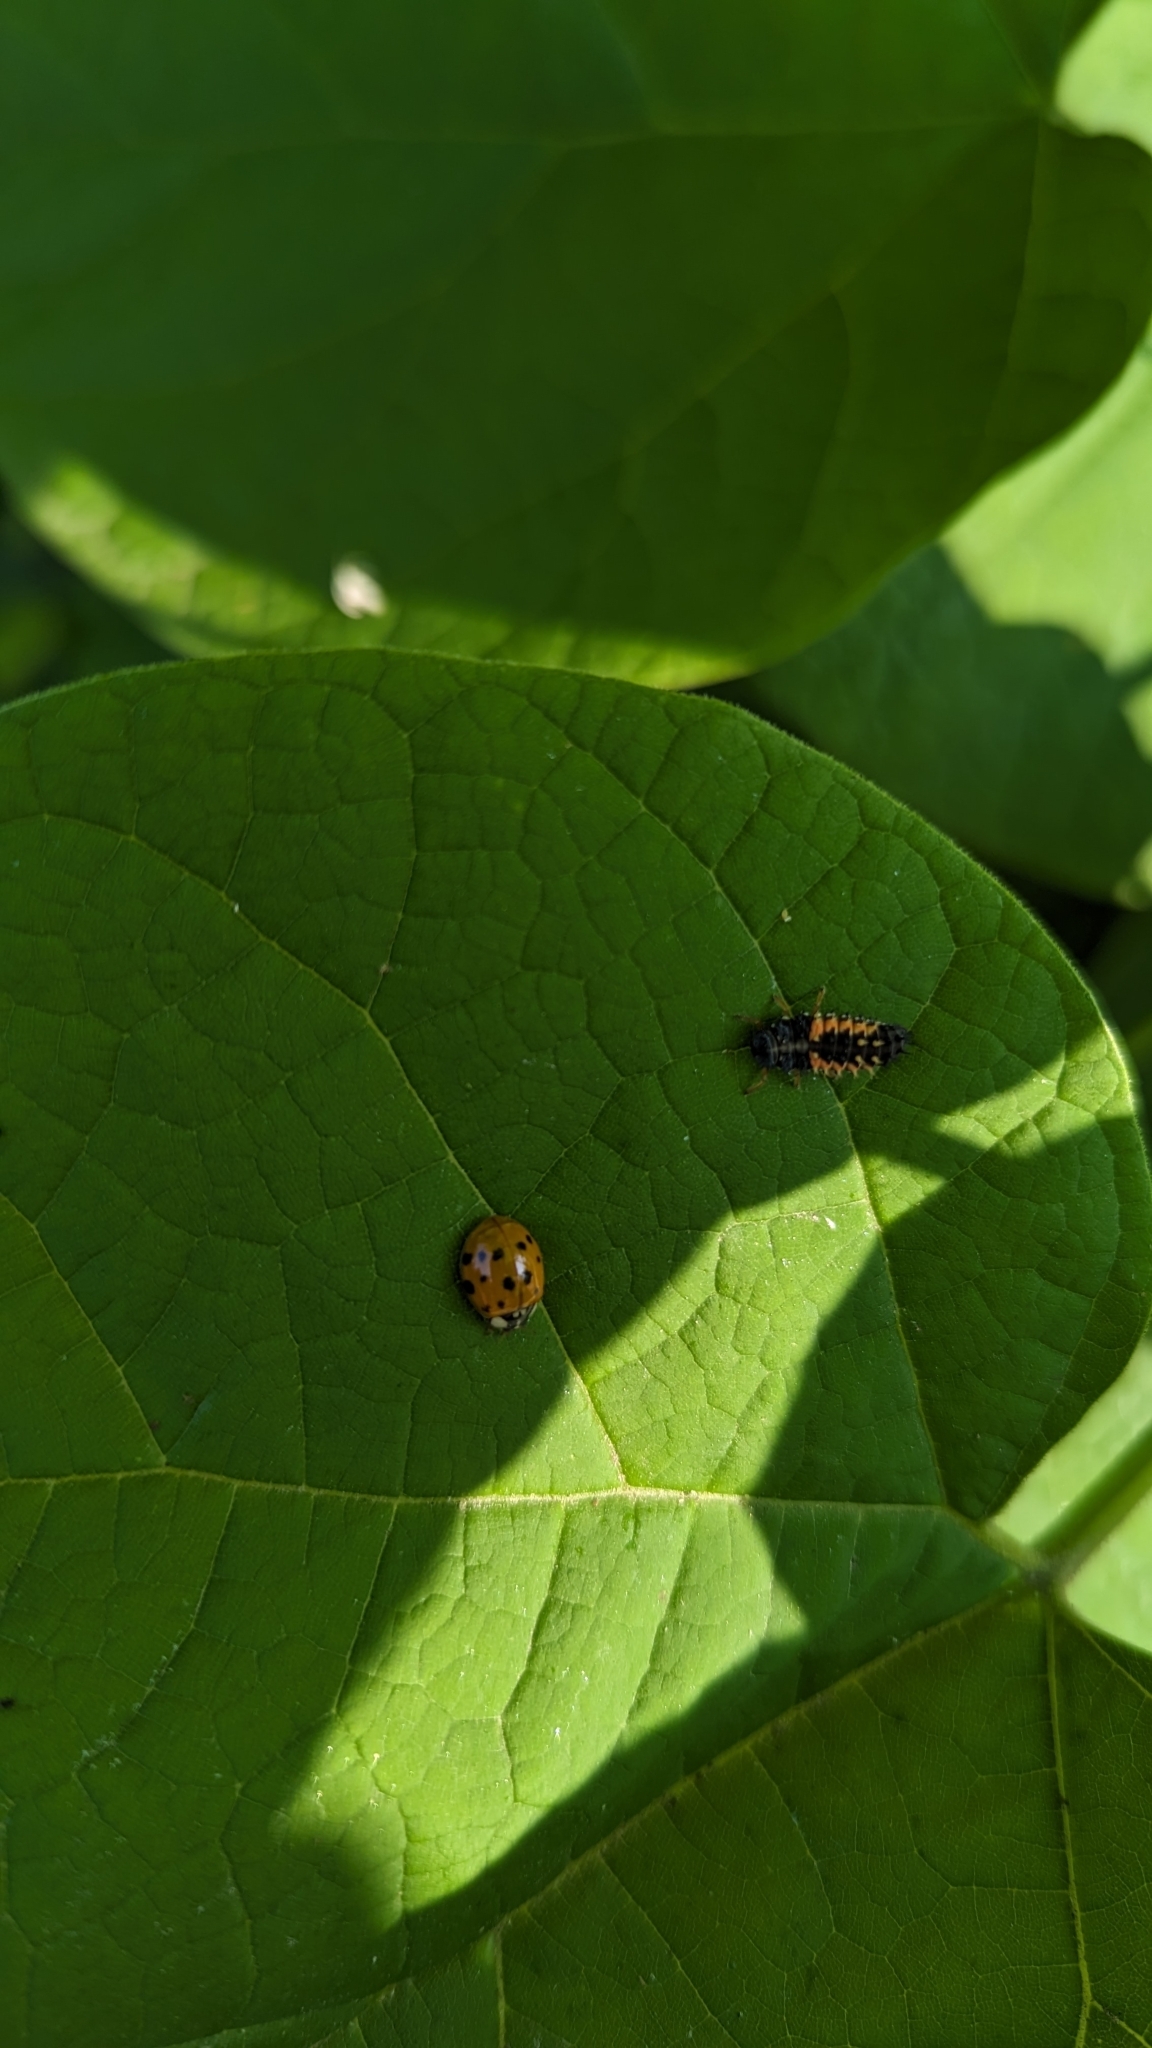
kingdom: Animalia
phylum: Arthropoda
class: Insecta
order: Coleoptera
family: Coccinellidae
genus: Harmonia
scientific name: Harmonia axyridis
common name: Harlequin ladybird
